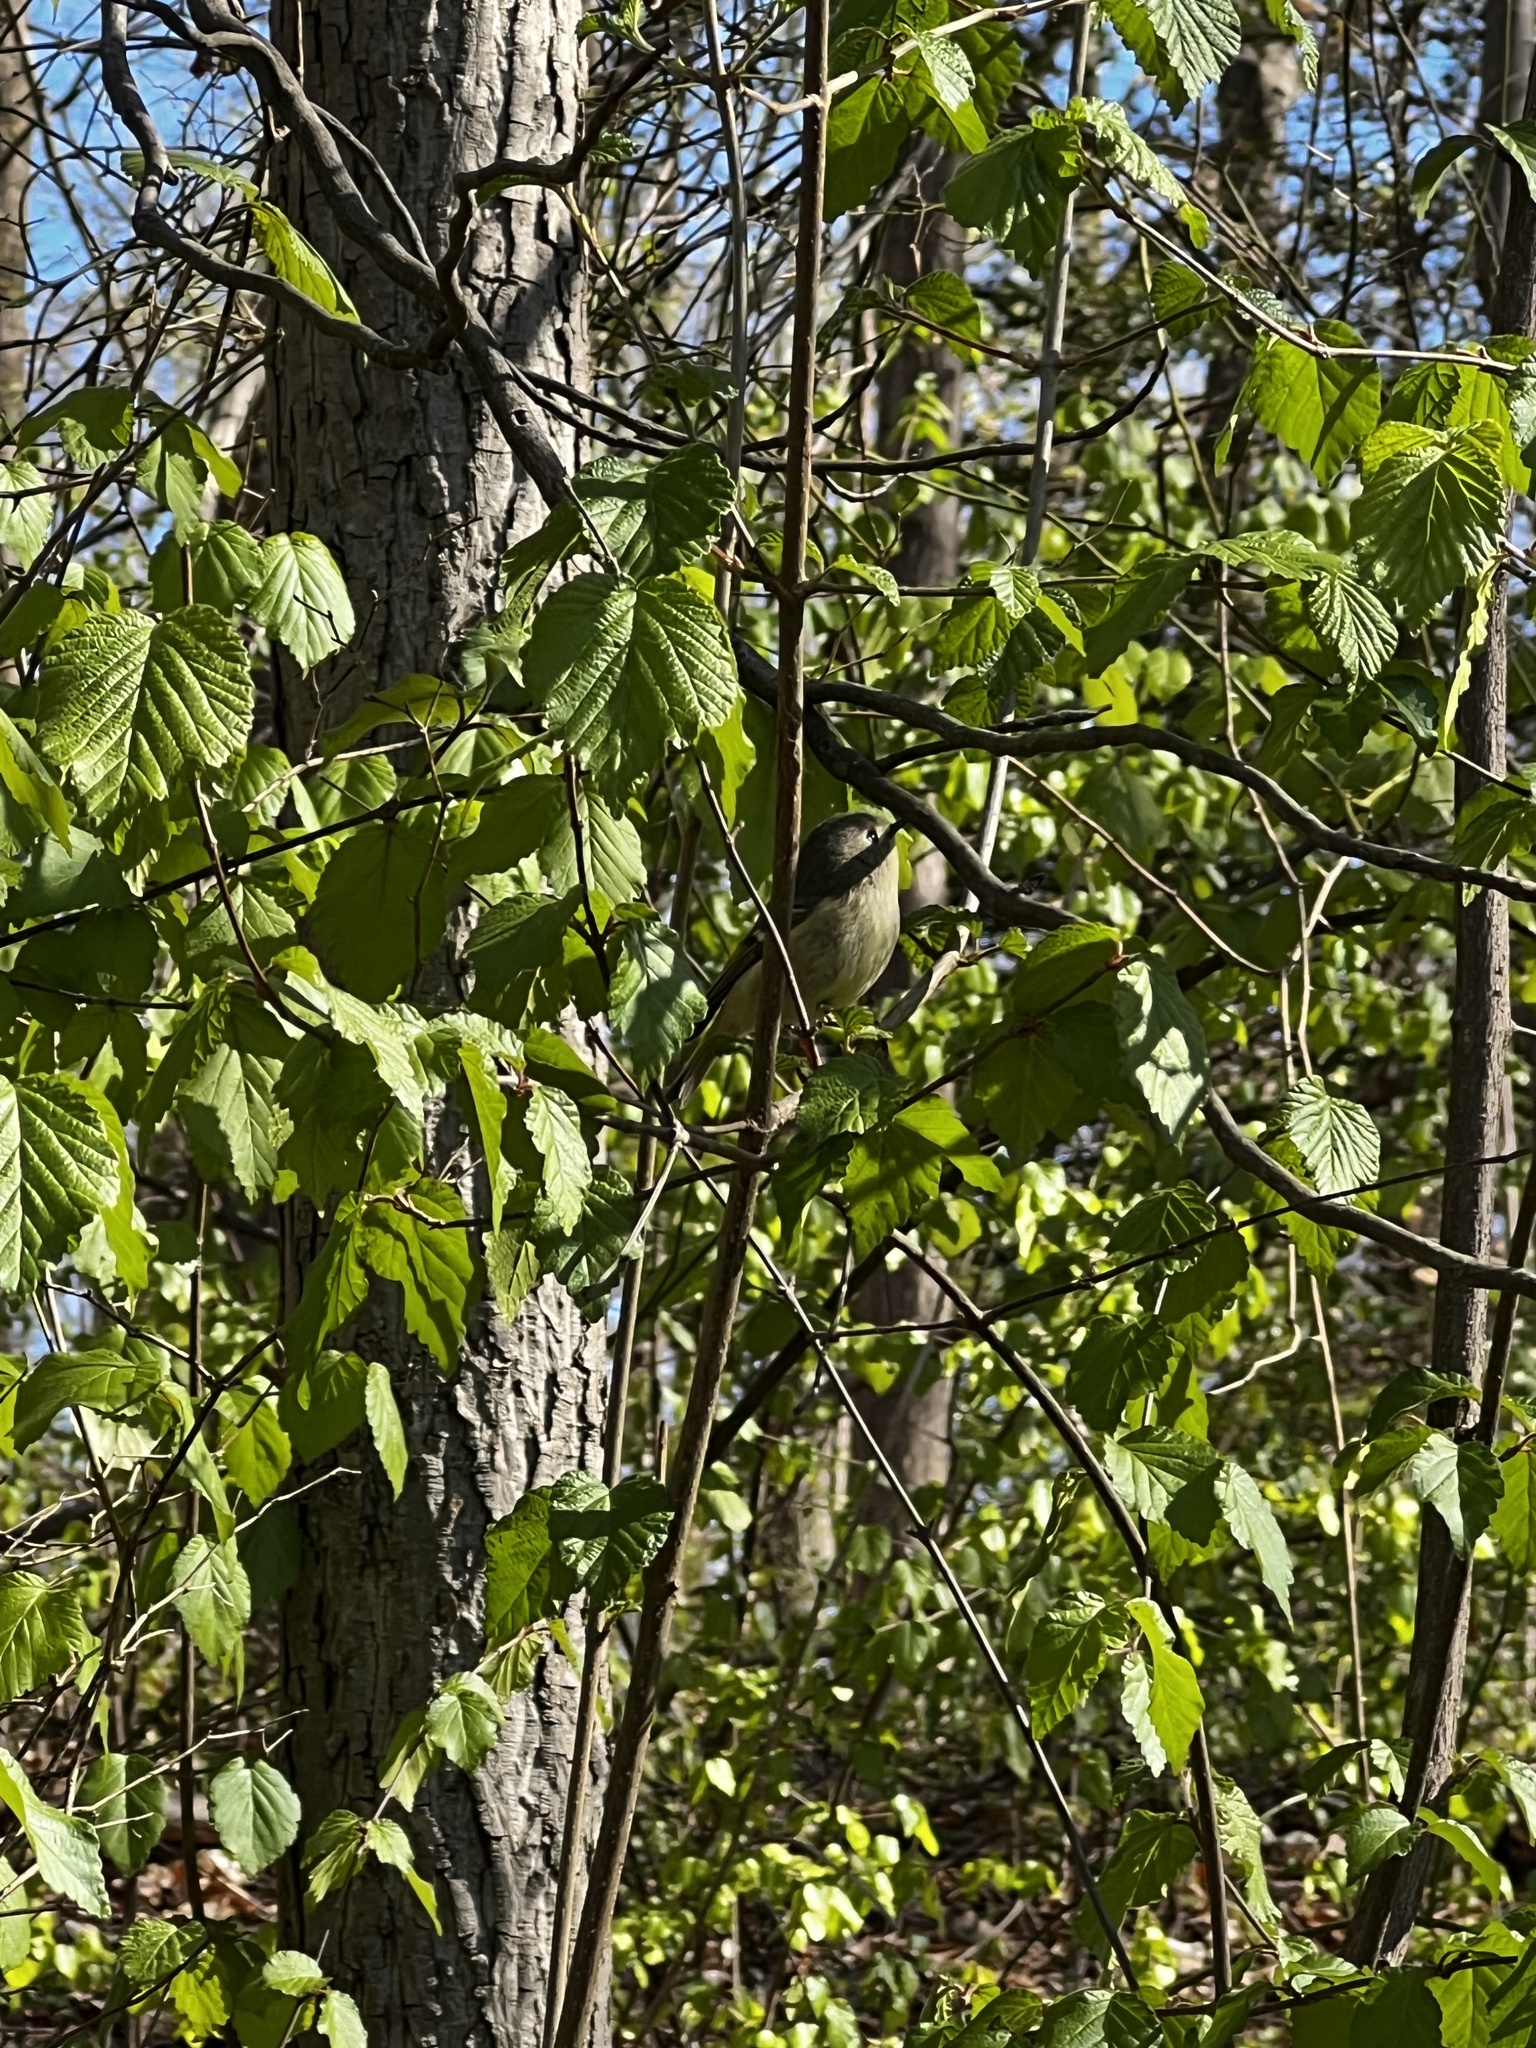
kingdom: Animalia
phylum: Chordata
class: Aves
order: Passeriformes
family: Regulidae
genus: Regulus
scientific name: Regulus calendula
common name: Ruby-crowned kinglet
